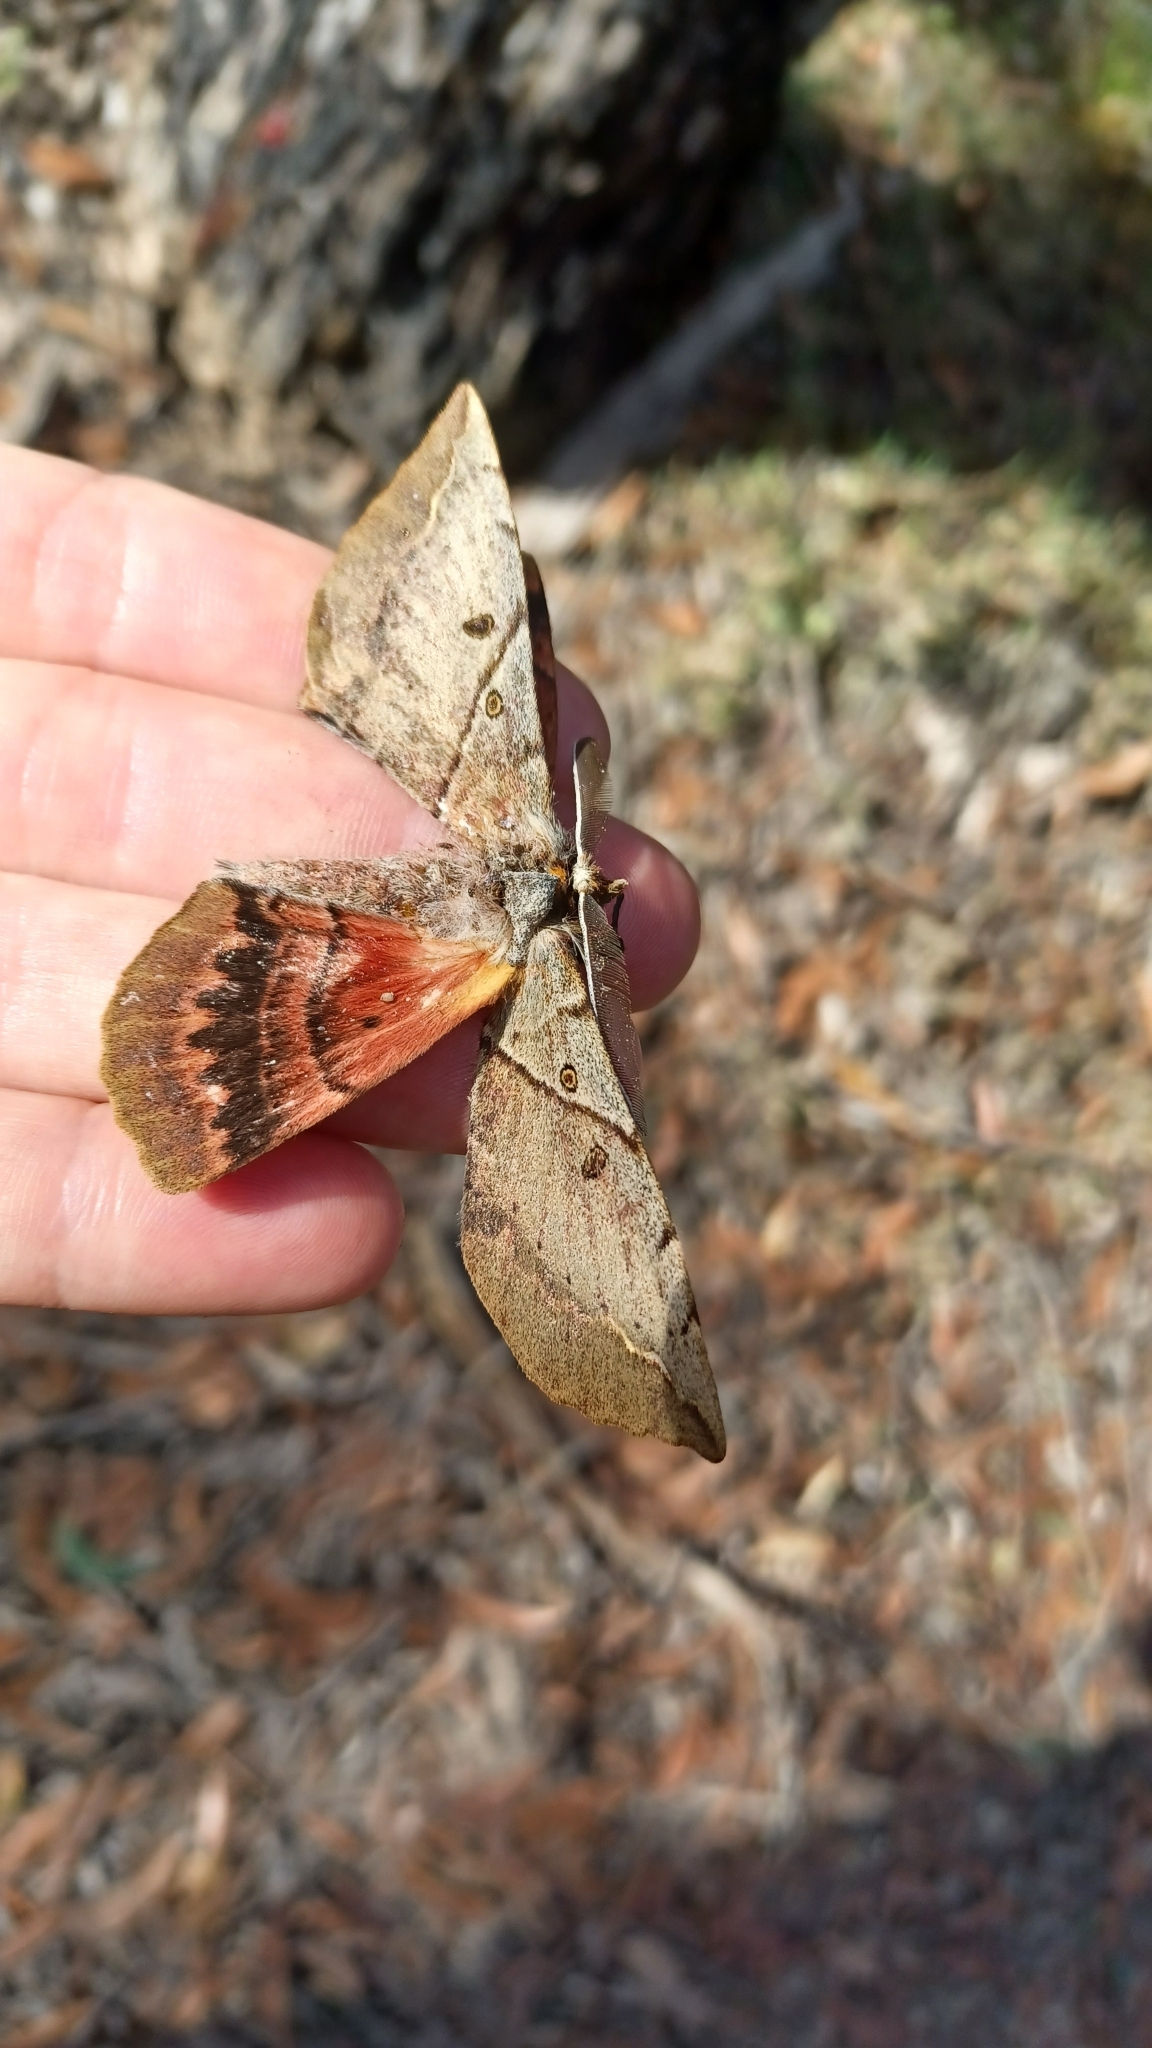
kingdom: Animalia
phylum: Arthropoda
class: Insecta
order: Lepidoptera
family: Anthelidae
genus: Chelepteryx
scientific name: Chelepteryx chalepteryx
